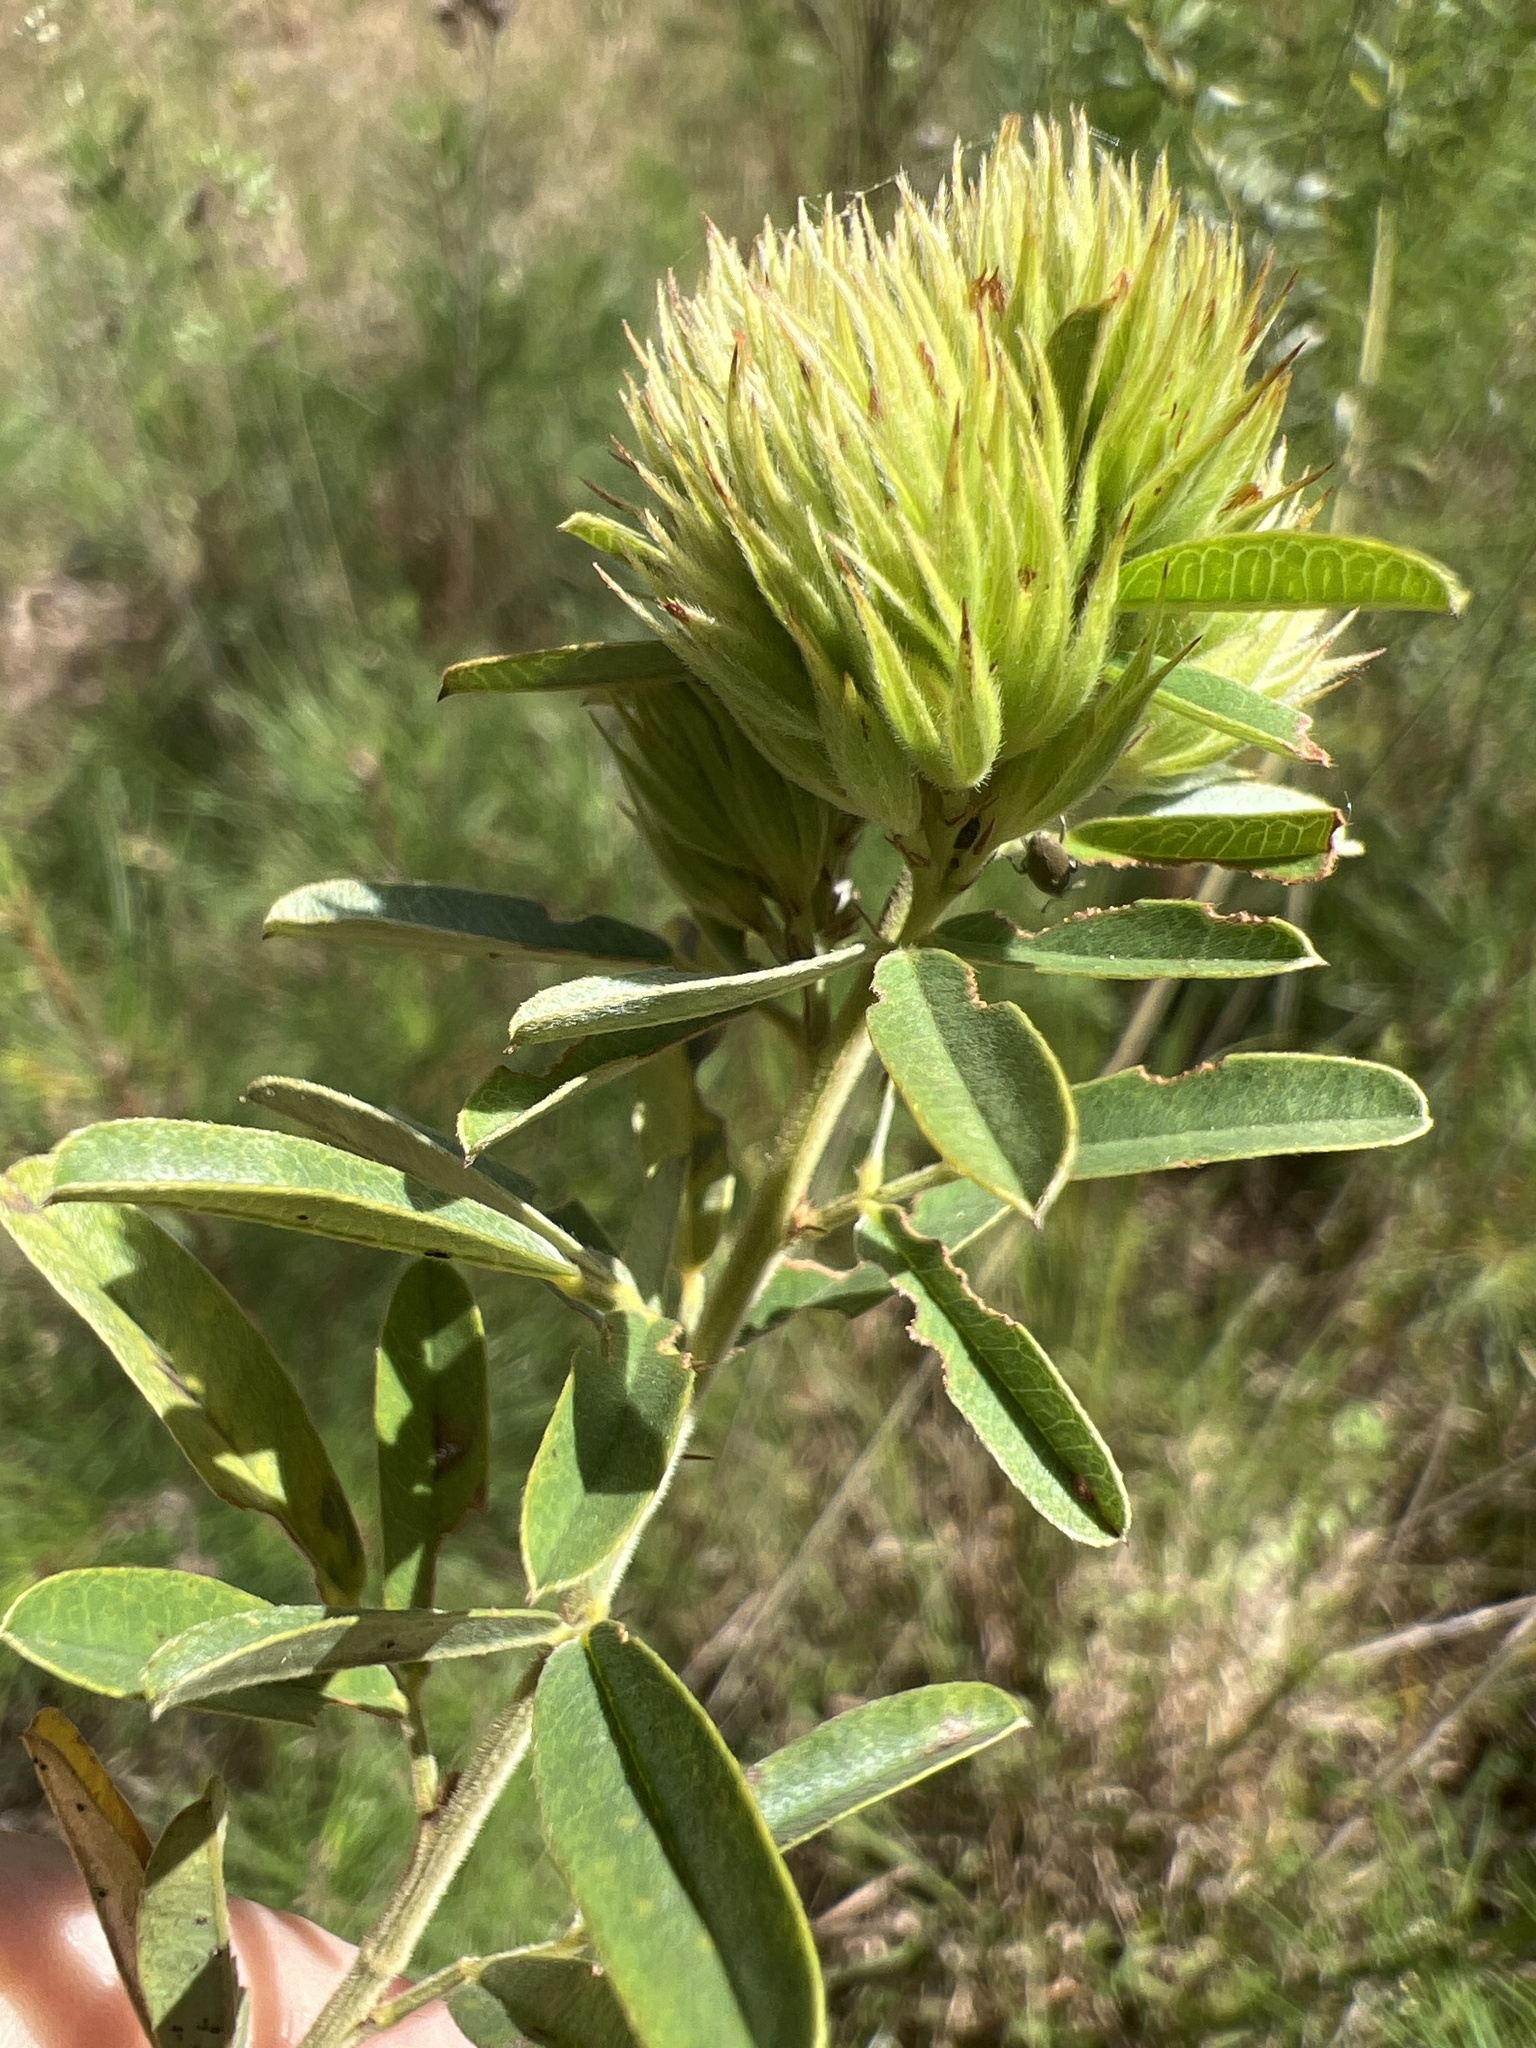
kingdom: Plantae
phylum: Tracheophyta
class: Magnoliopsida
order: Fabales
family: Fabaceae
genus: Lespedeza
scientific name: Lespedeza capitata
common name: Dusty clover
